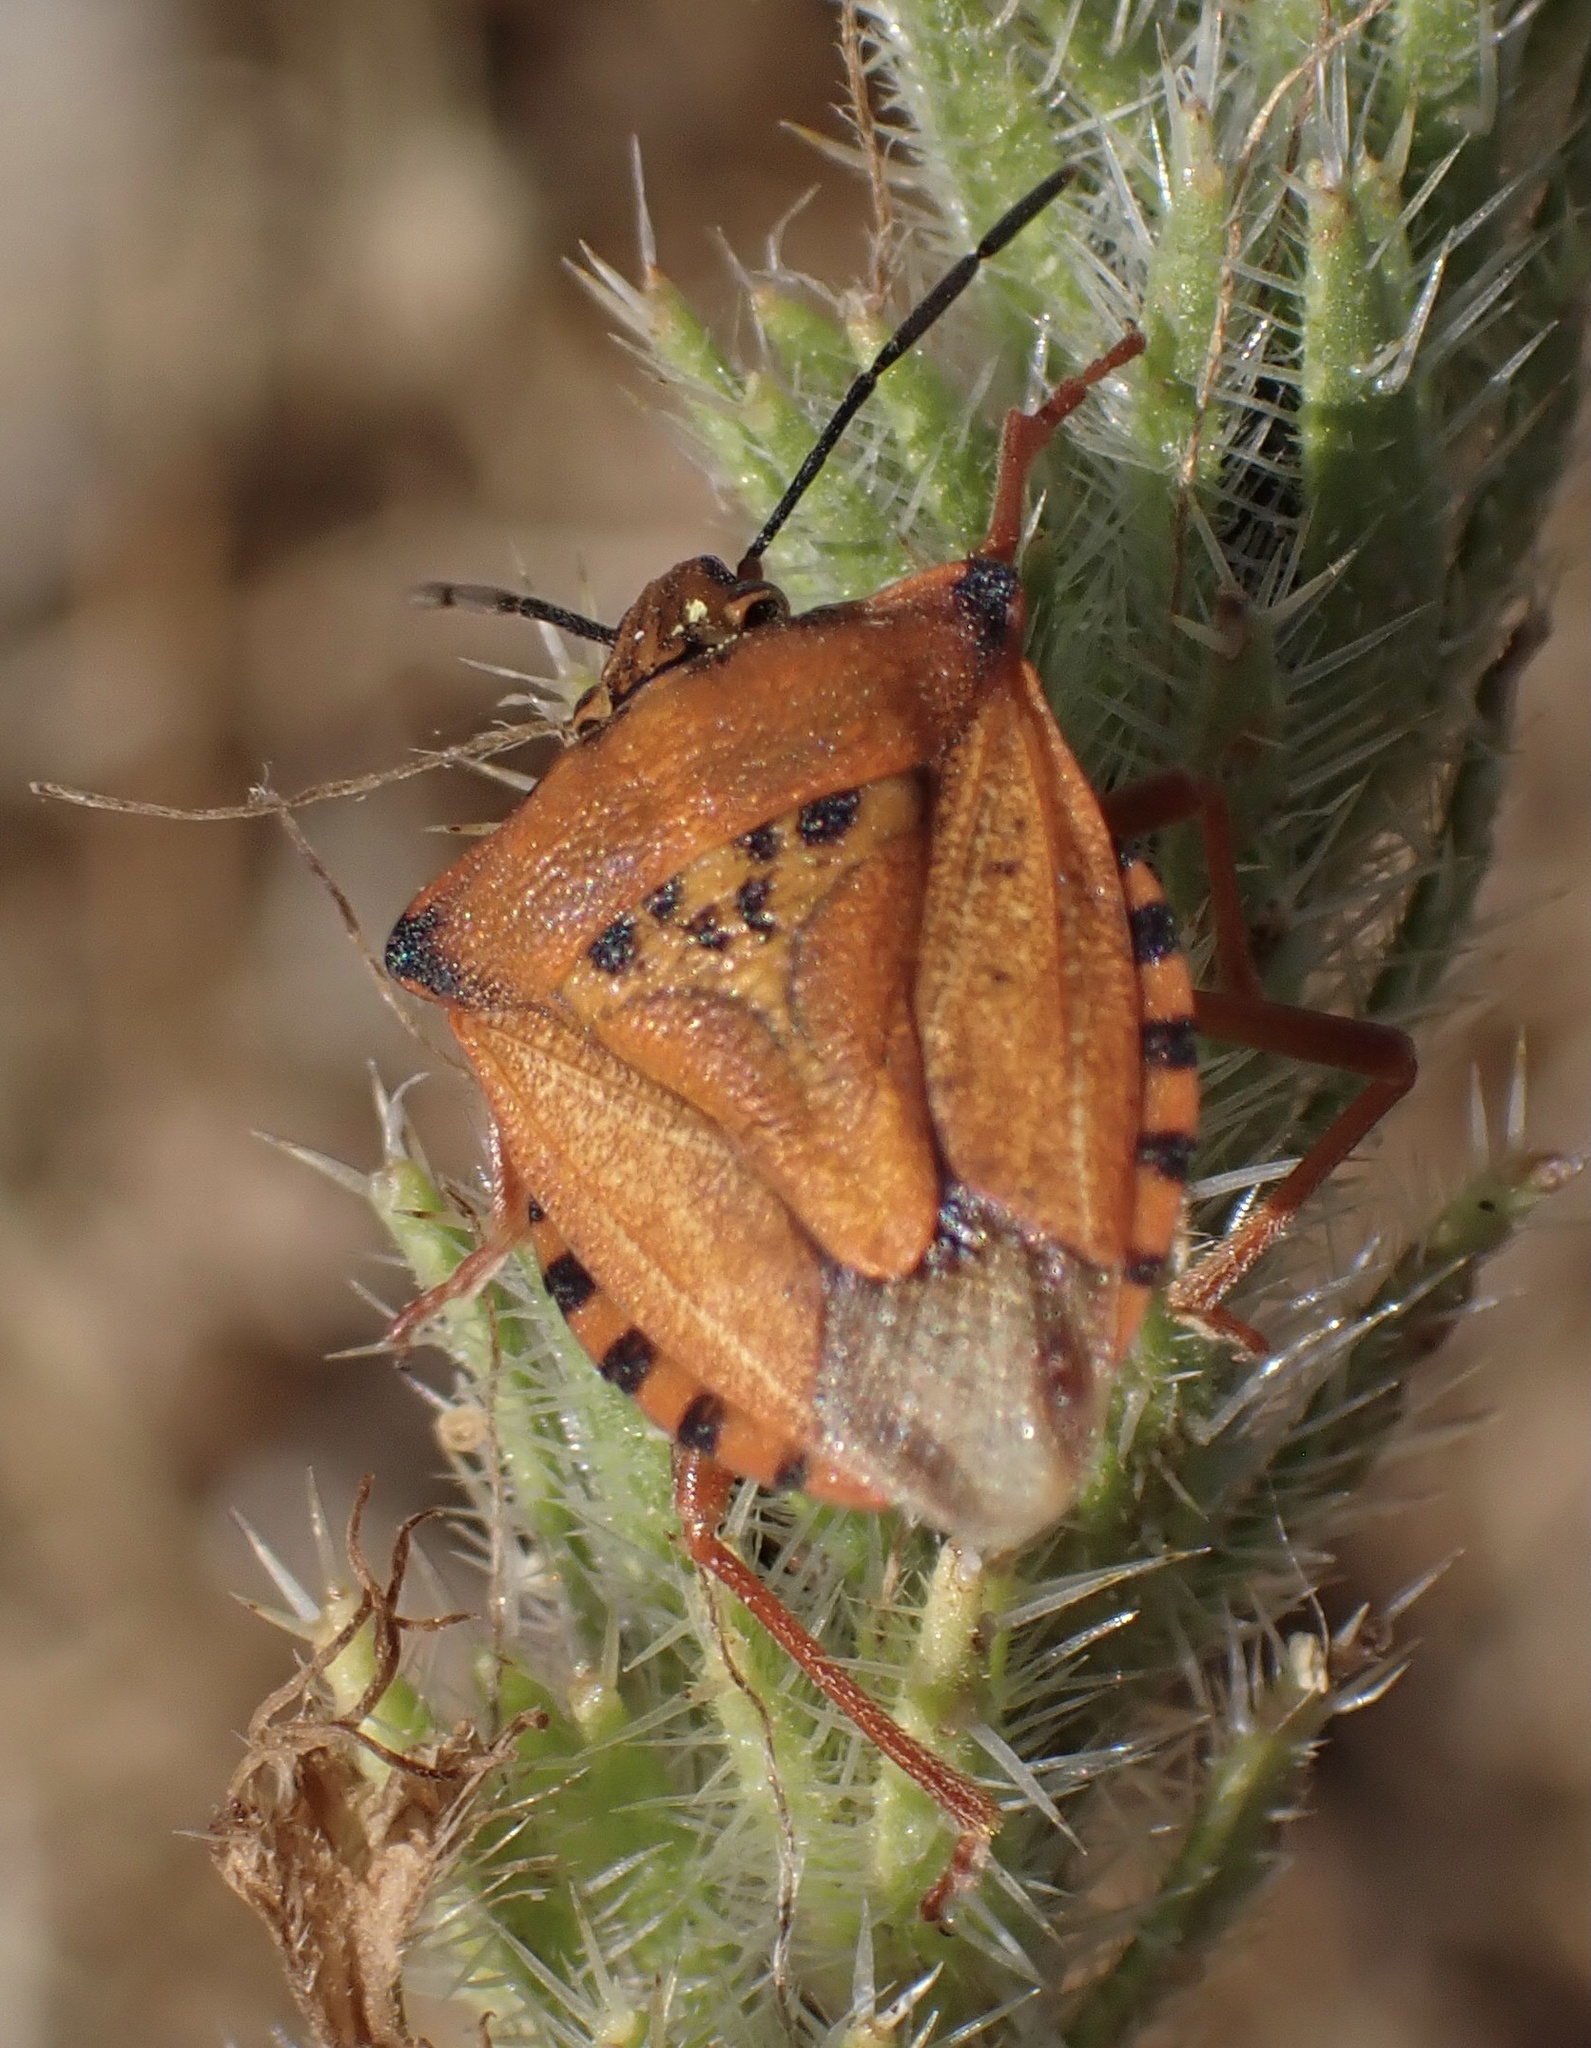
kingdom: Animalia
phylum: Arthropoda
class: Insecta
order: Hemiptera
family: Pentatomidae
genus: Carpocoris
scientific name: Carpocoris mediterraneus
